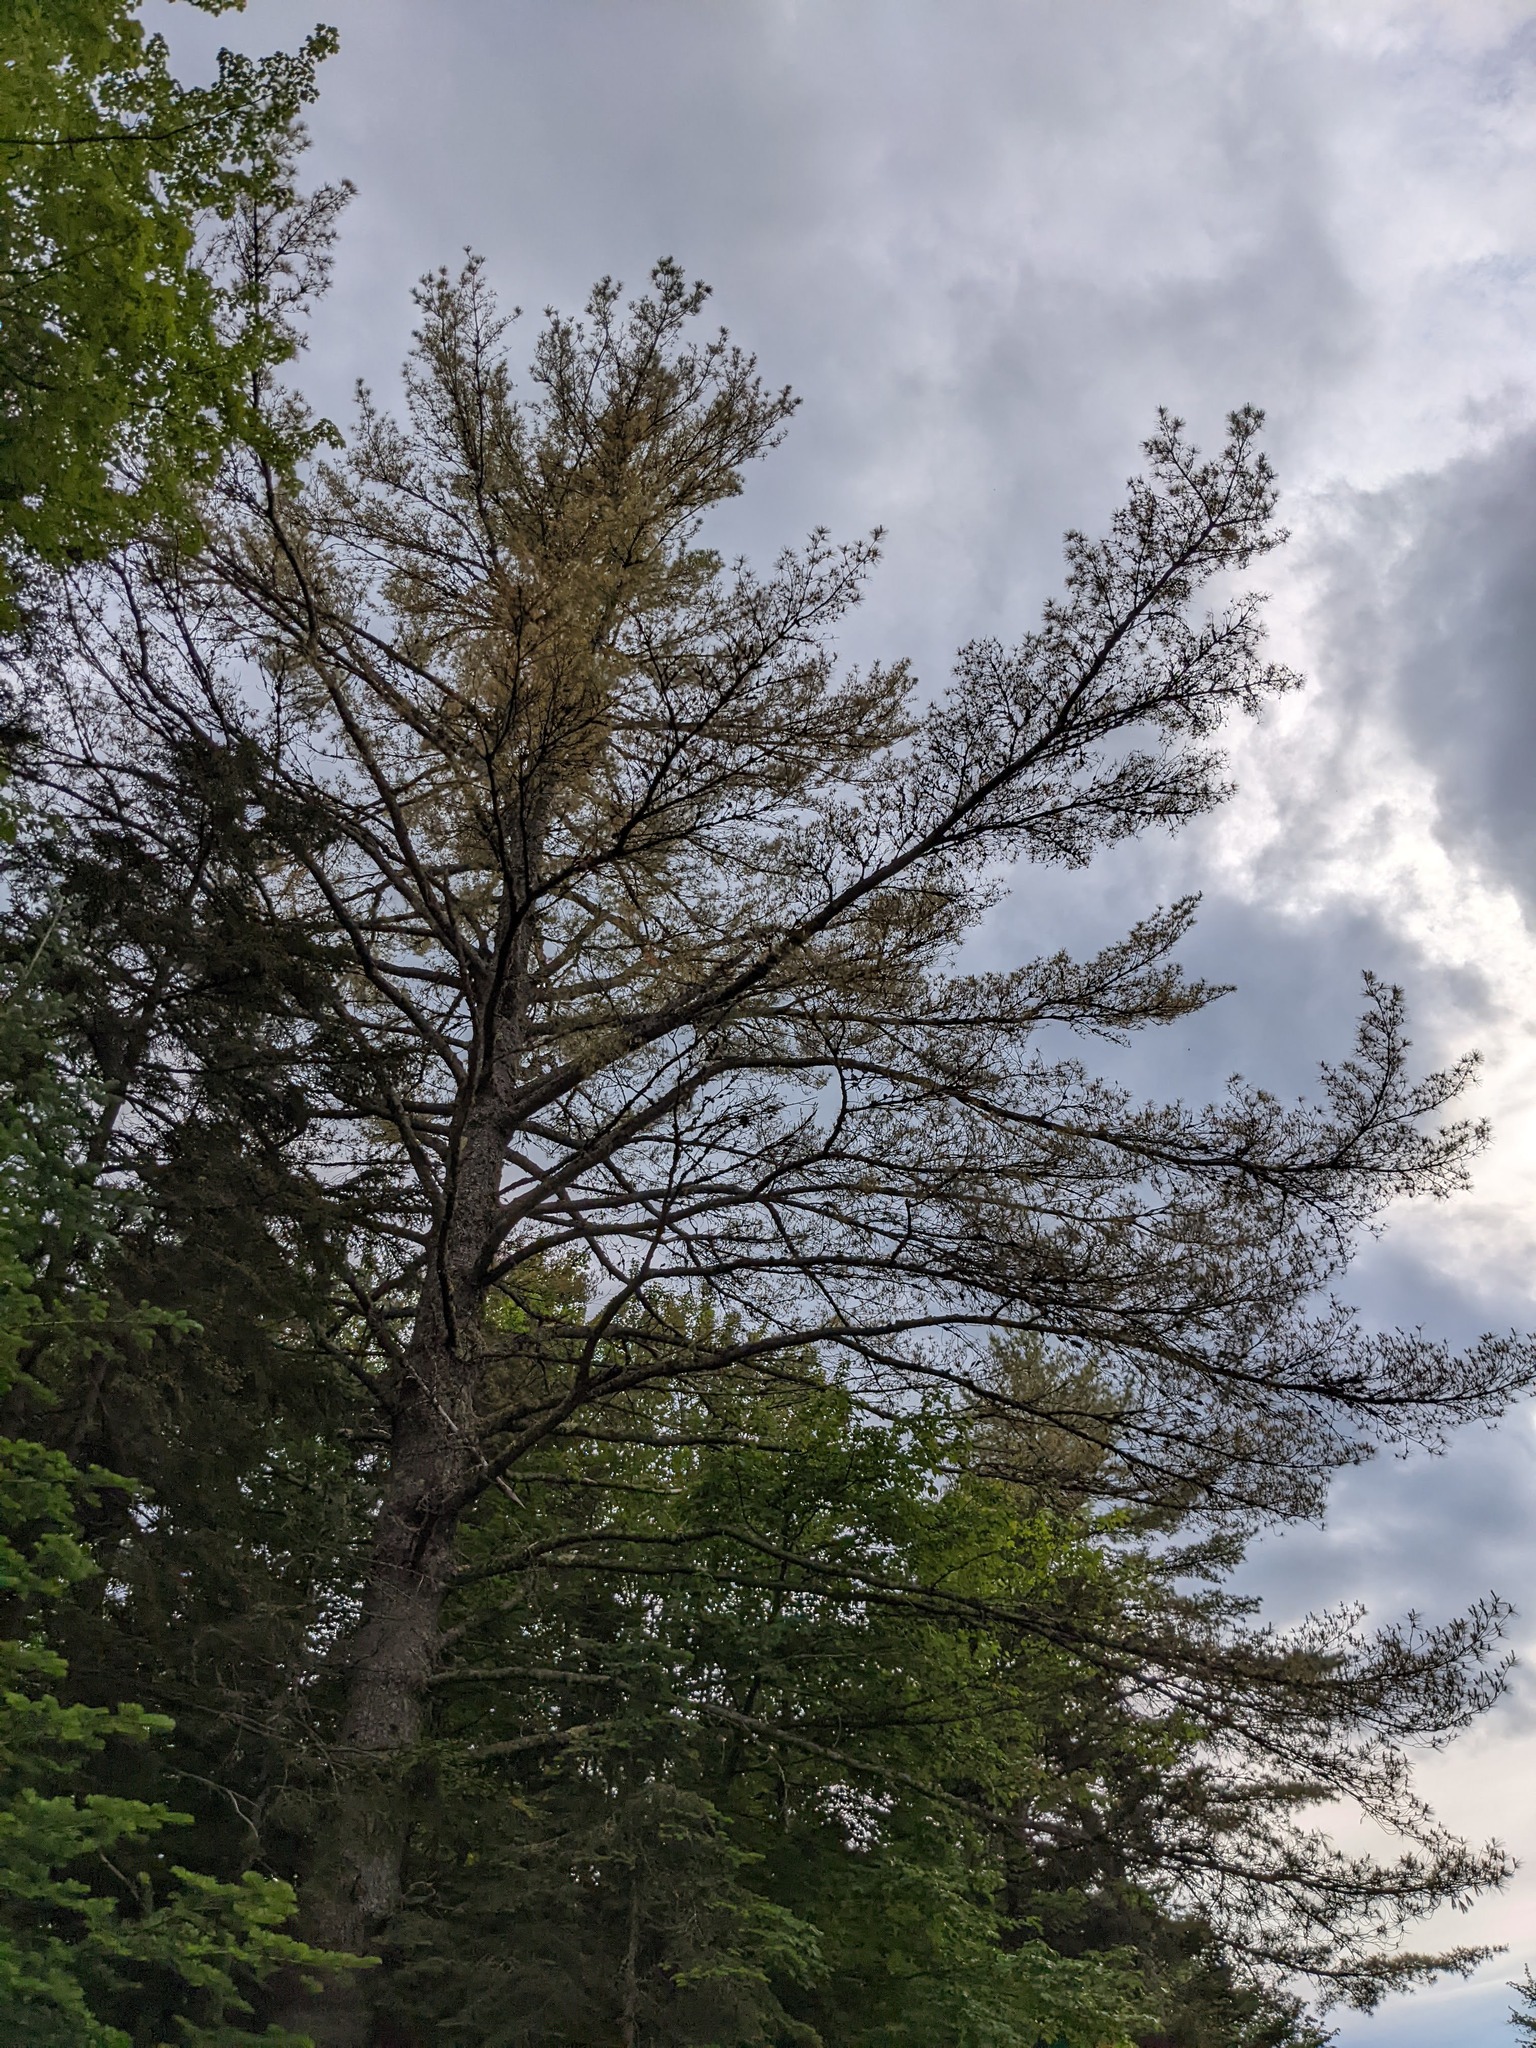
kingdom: Plantae
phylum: Tracheophyta
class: Pinopsida
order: Pinales
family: Pinaceae
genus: Pinus
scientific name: Pinus strobus
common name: Weymouth pine
